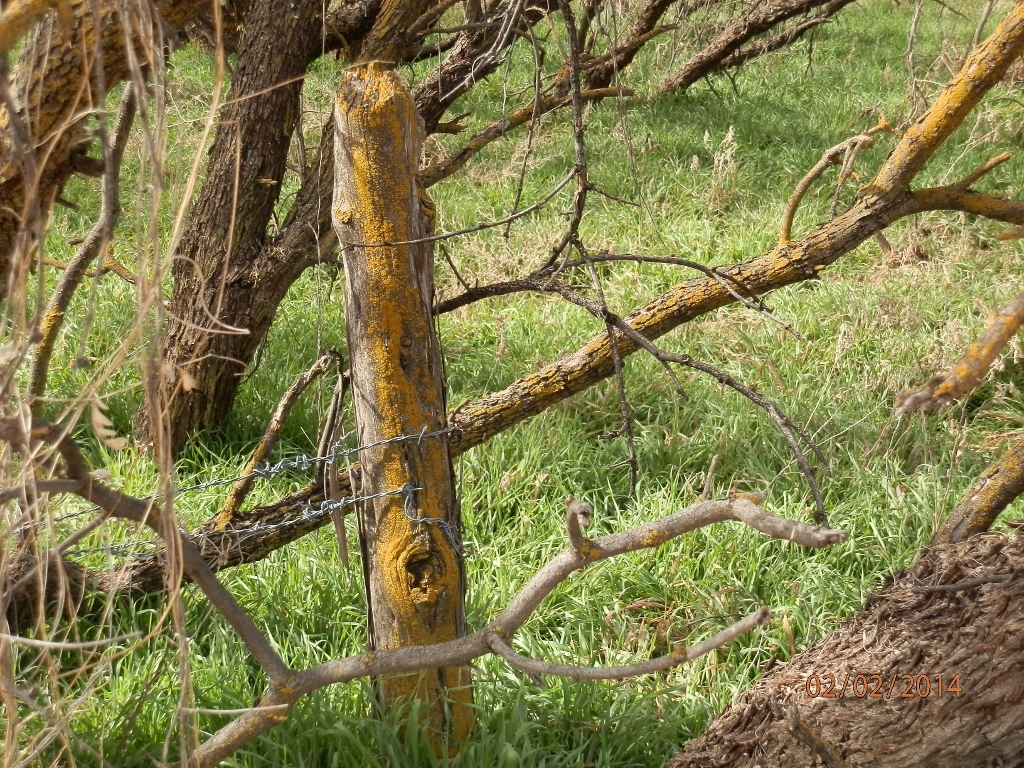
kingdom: Fungi
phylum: Ascomycota
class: Lecanoromycetes
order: Teloschistales
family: Teloschistaceae
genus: Oxneria
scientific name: Oxneria fallax
